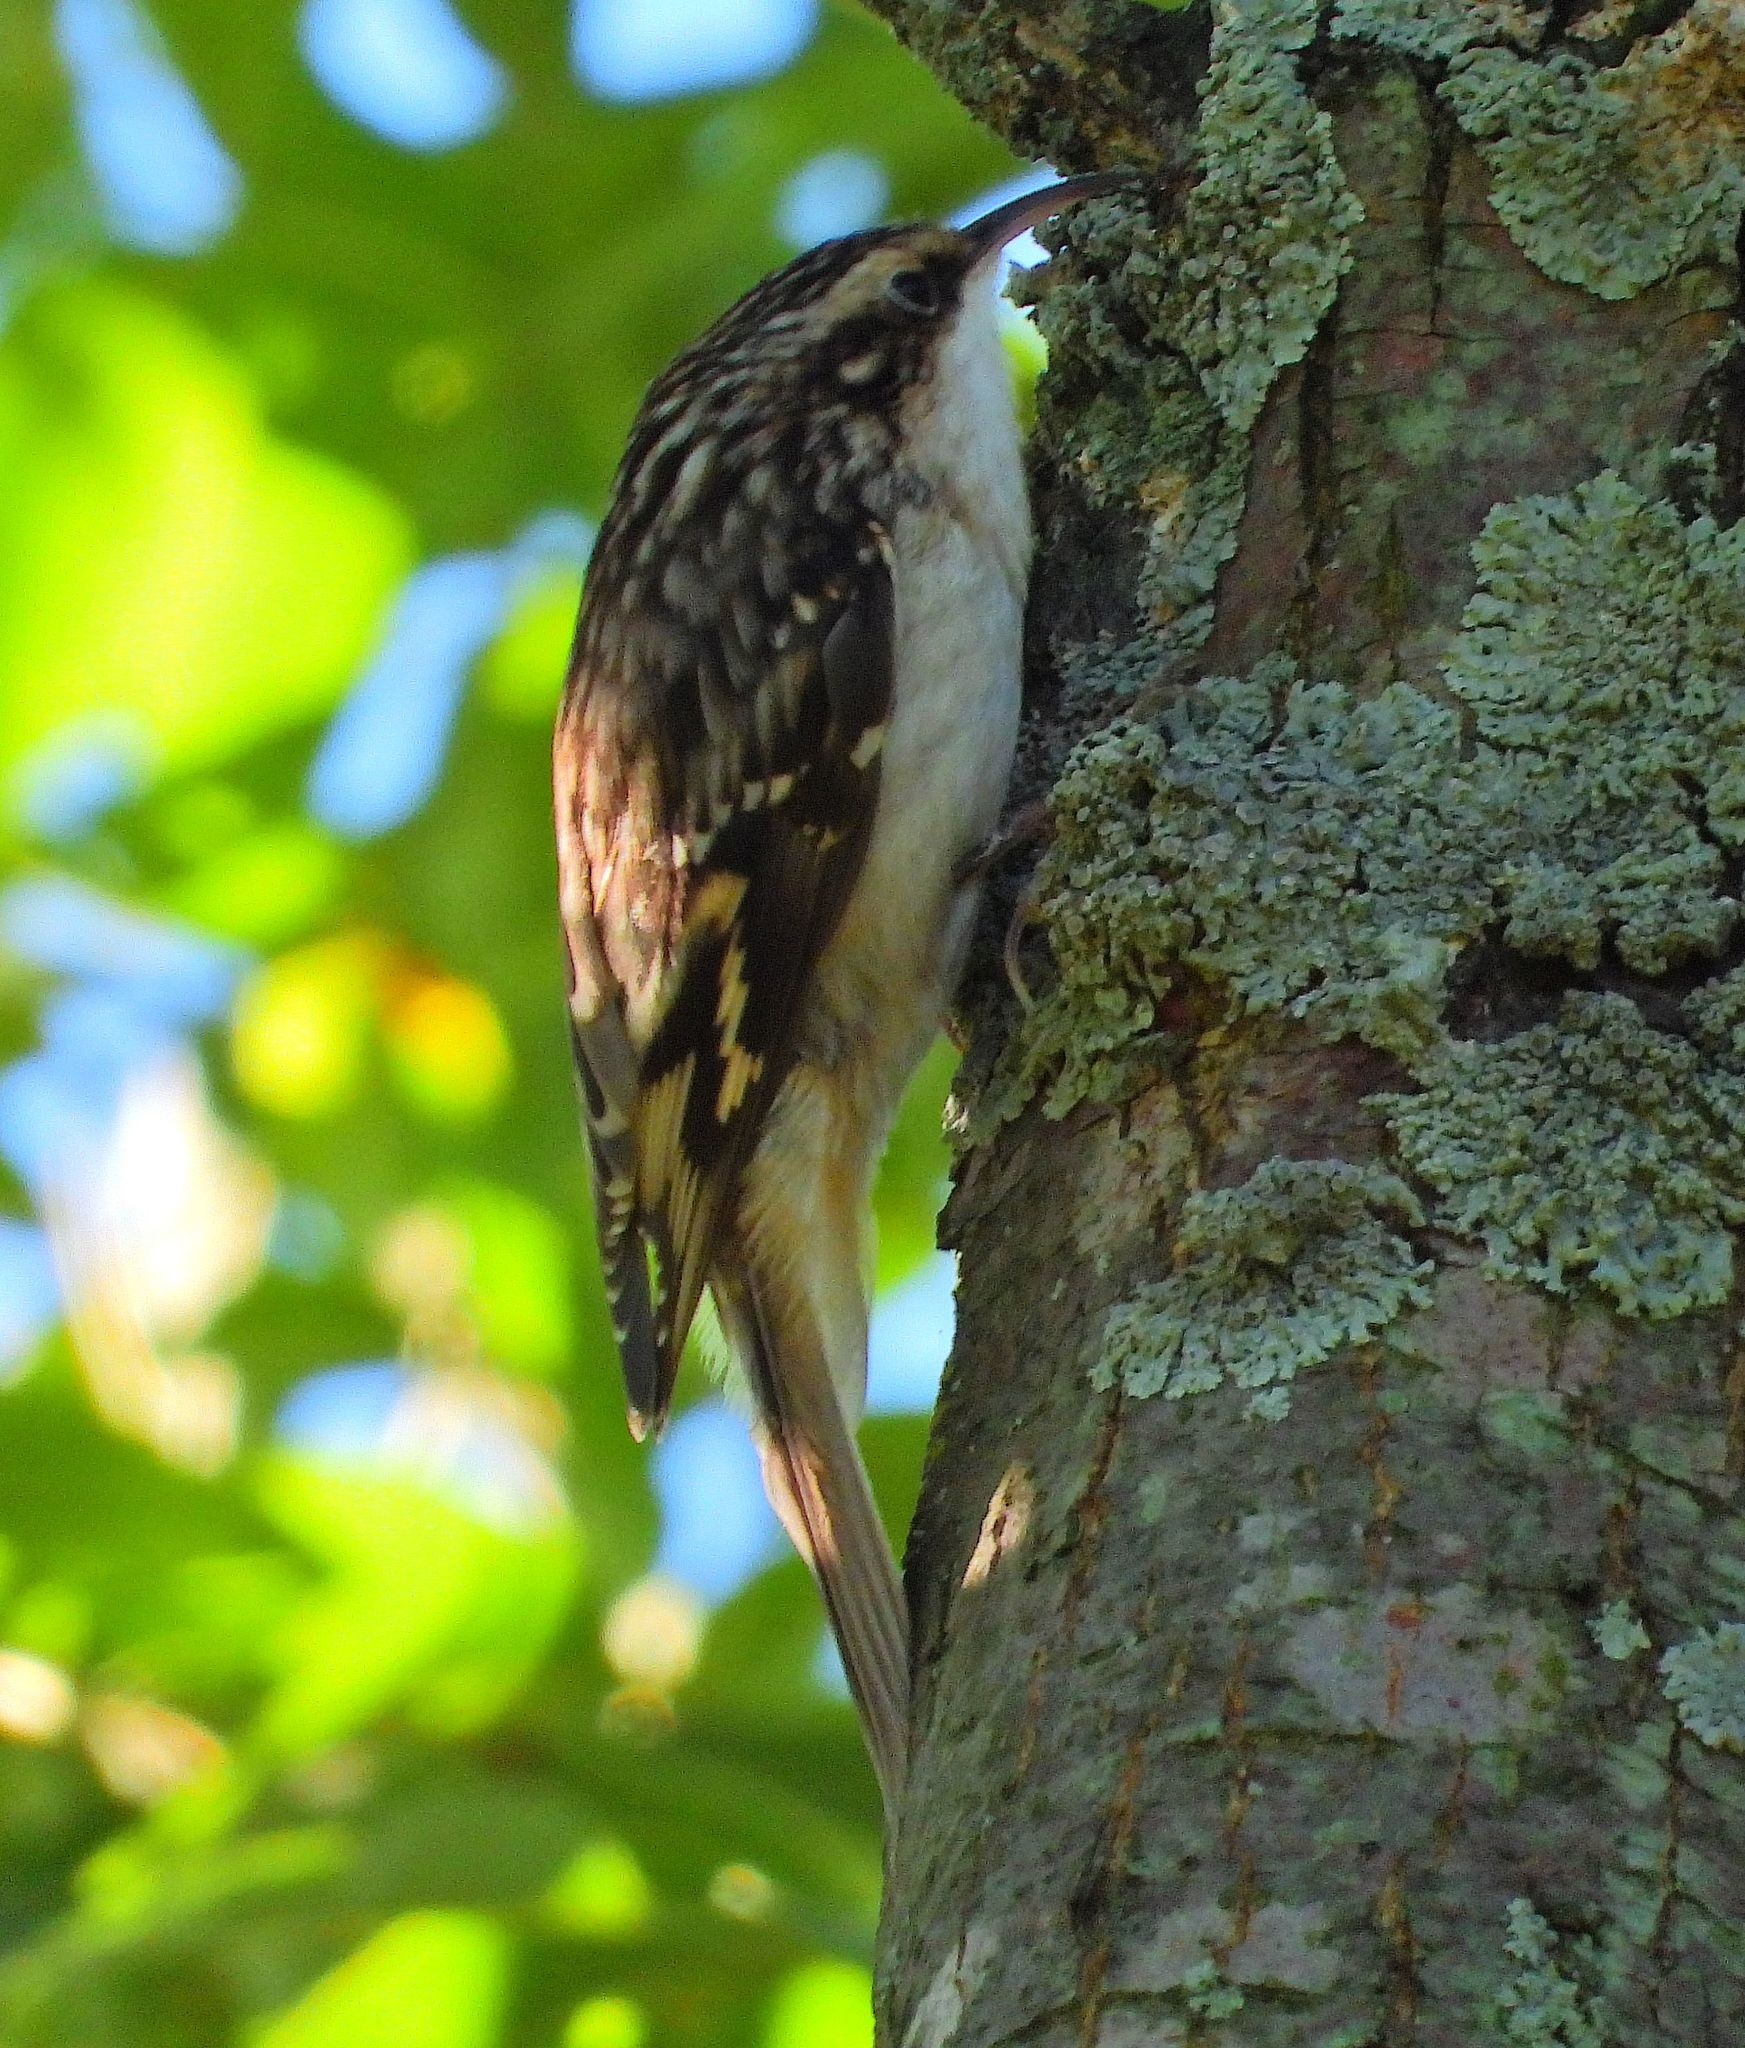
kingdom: Animalia
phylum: Chordata
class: Aves
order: Passeriformes
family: Certhiidae
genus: Certhia
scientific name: Certhia americana
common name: Brown creeper
